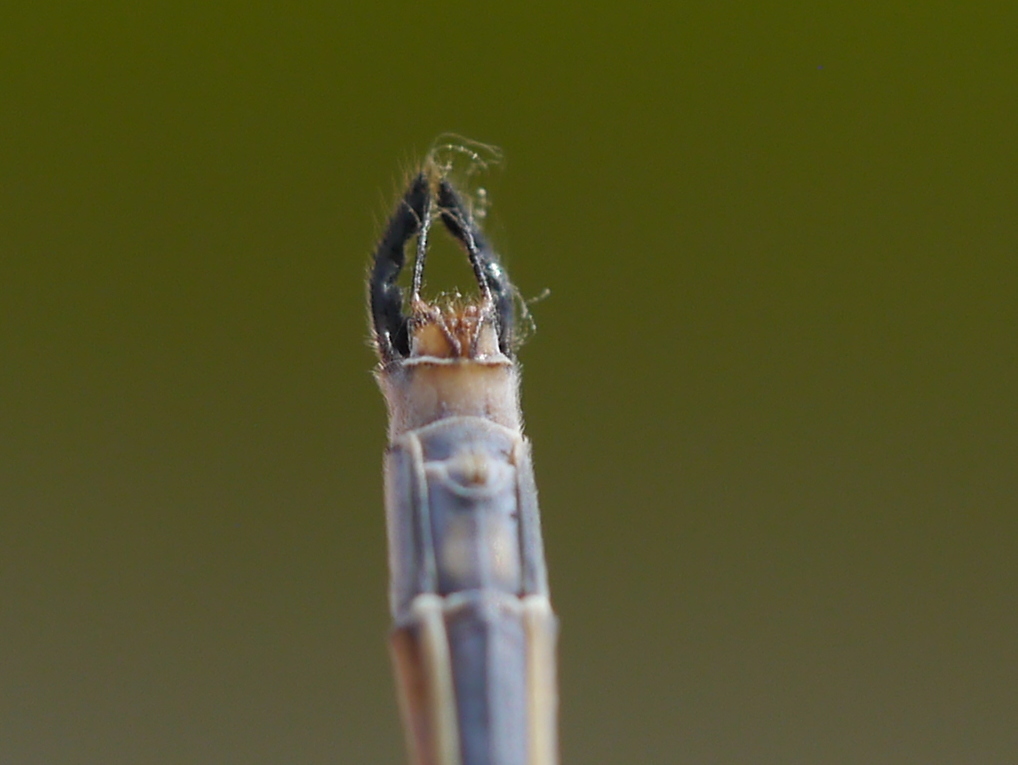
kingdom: Animalia
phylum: Arthropoda
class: Insecta
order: Odonata
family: Lestidae
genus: Lestes
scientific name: Lestes vigilax
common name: Swamp spreadwing
